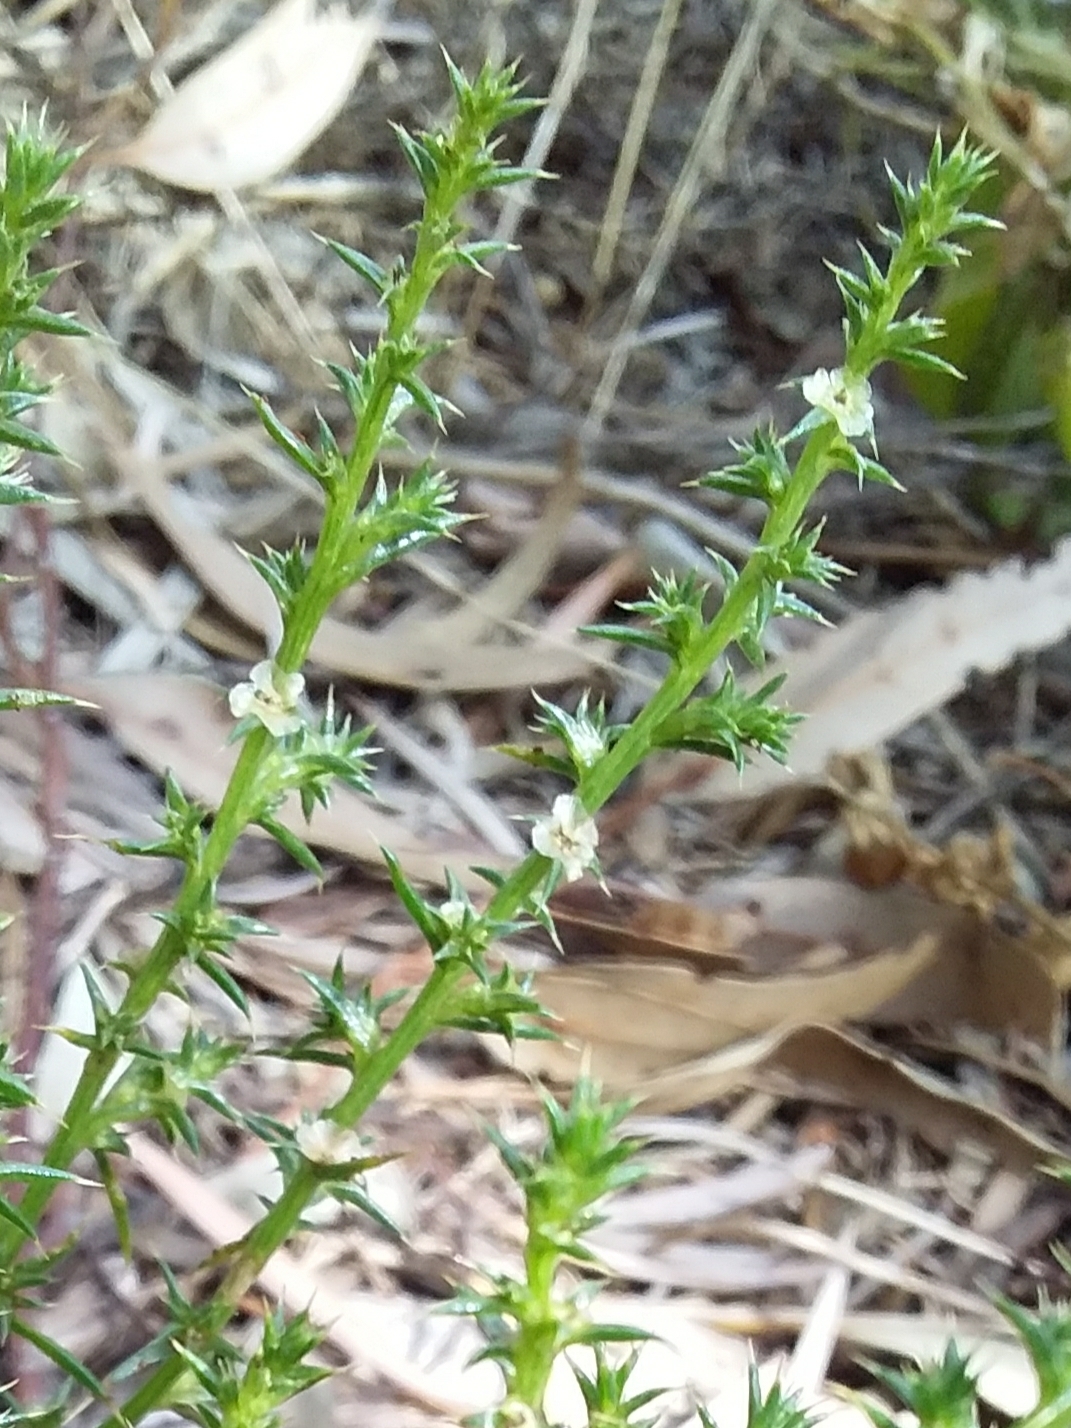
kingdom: Plantae
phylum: Tracheophyta
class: Magnoliopsida
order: Caryophyllales
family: Amaranthaceae
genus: Salsola
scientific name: Salsola australis
